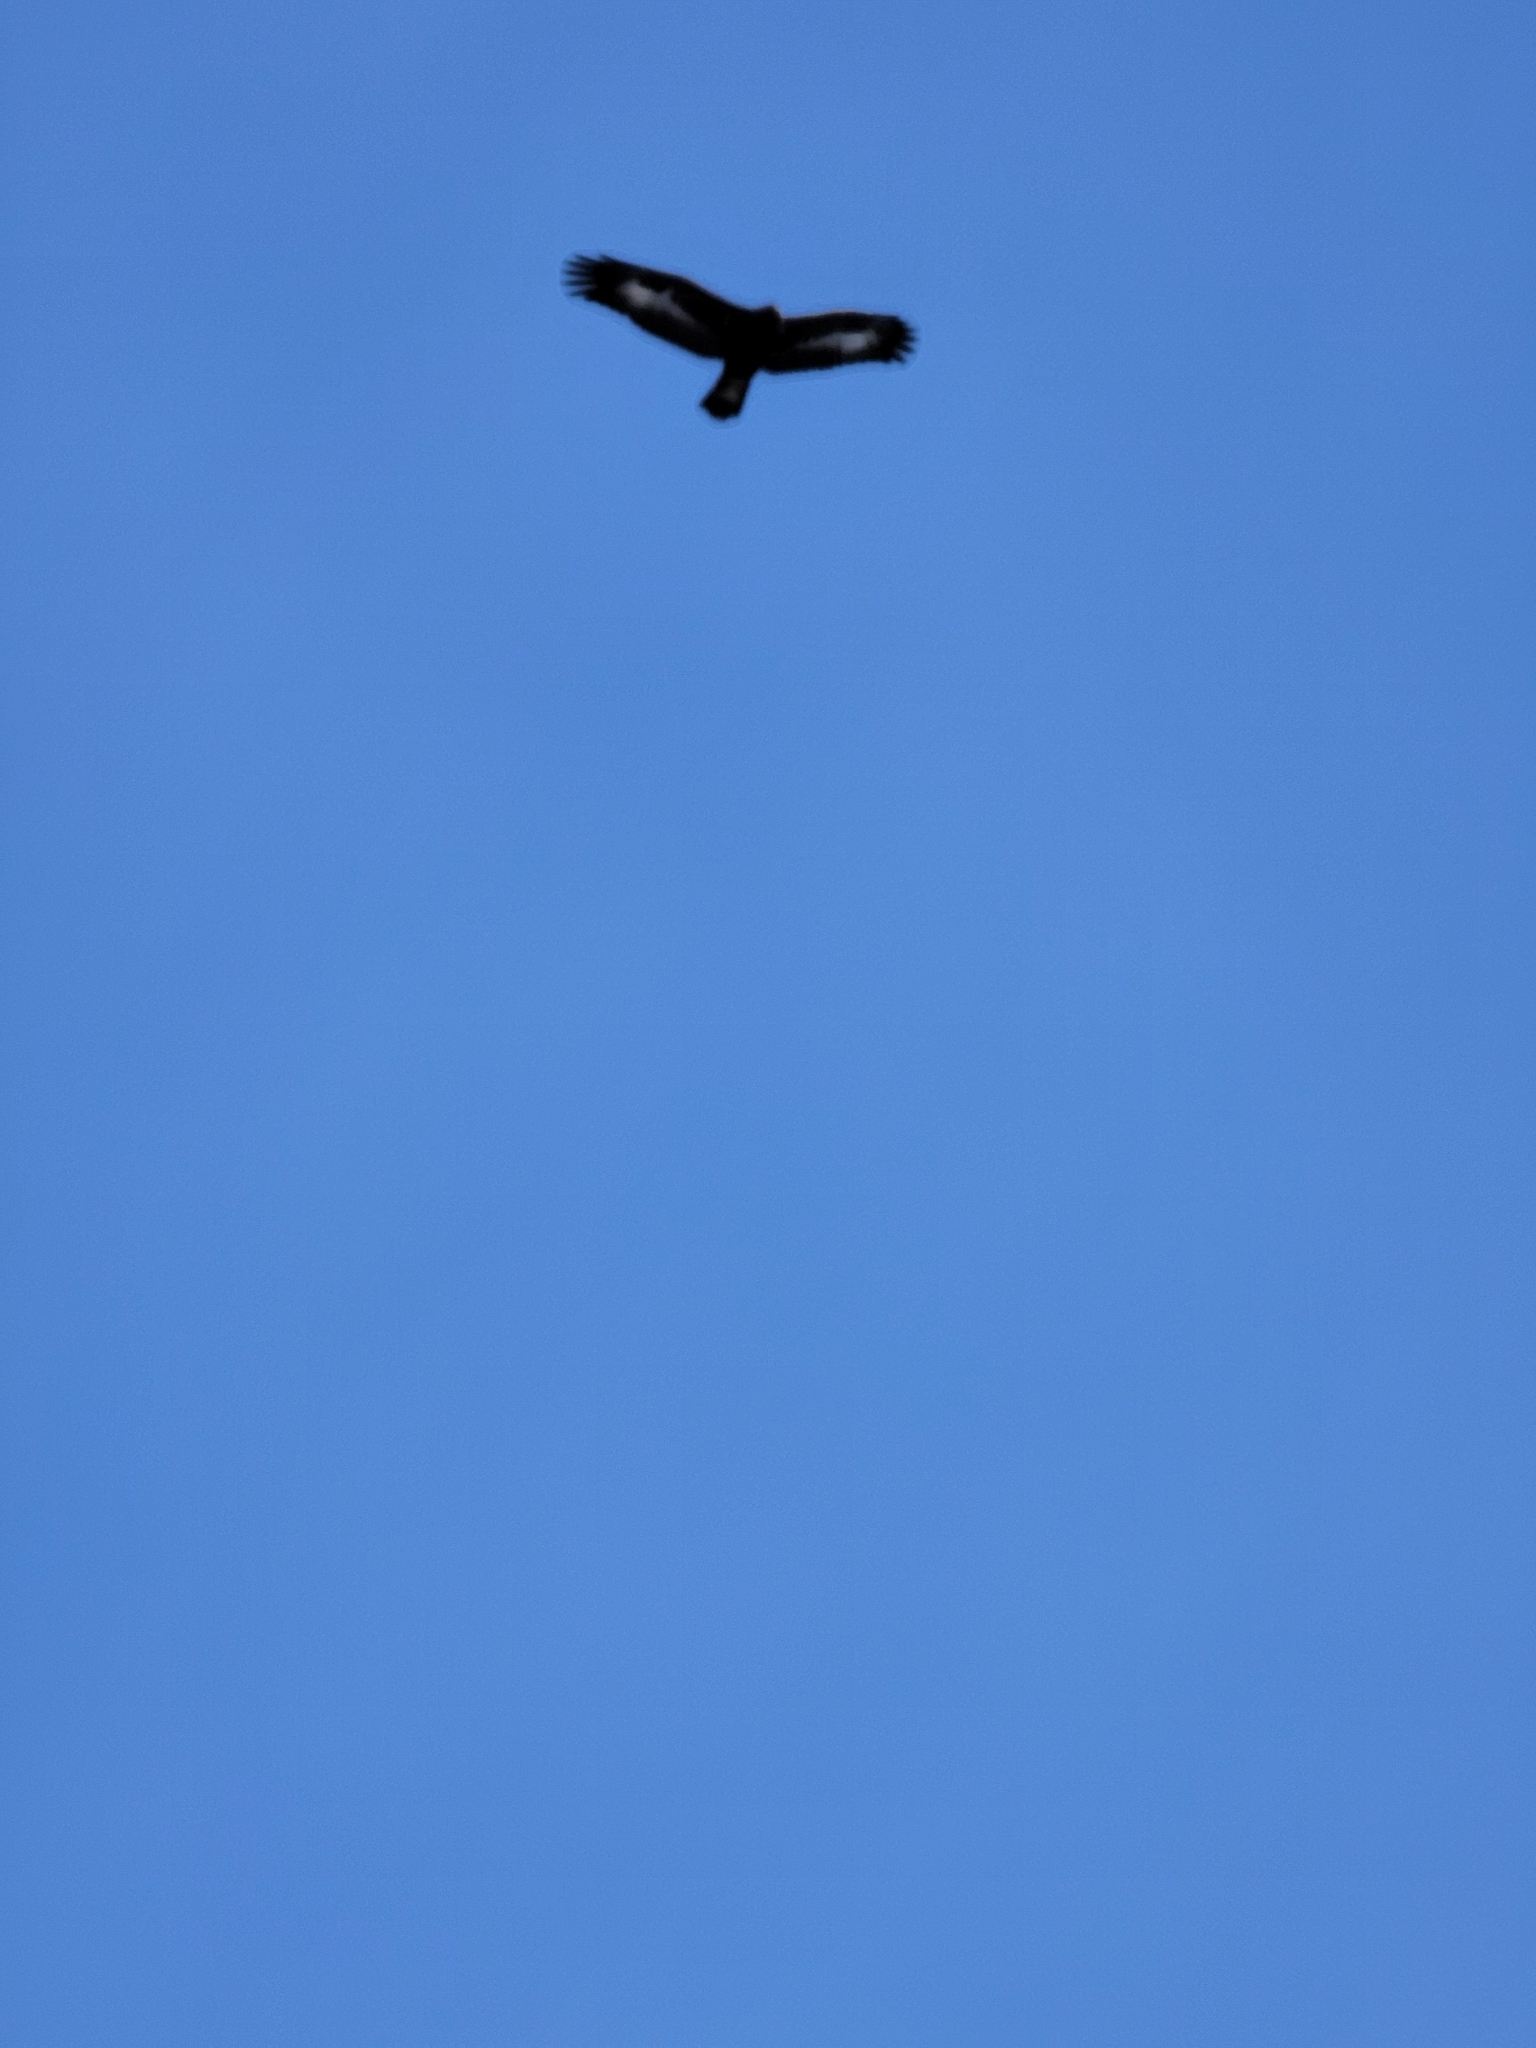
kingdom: Animalia
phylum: Chordata
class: Aves
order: Accipitriformes
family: Accipitridae
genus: Aquila
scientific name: Aquila chrysaetos
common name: Golden eagle
